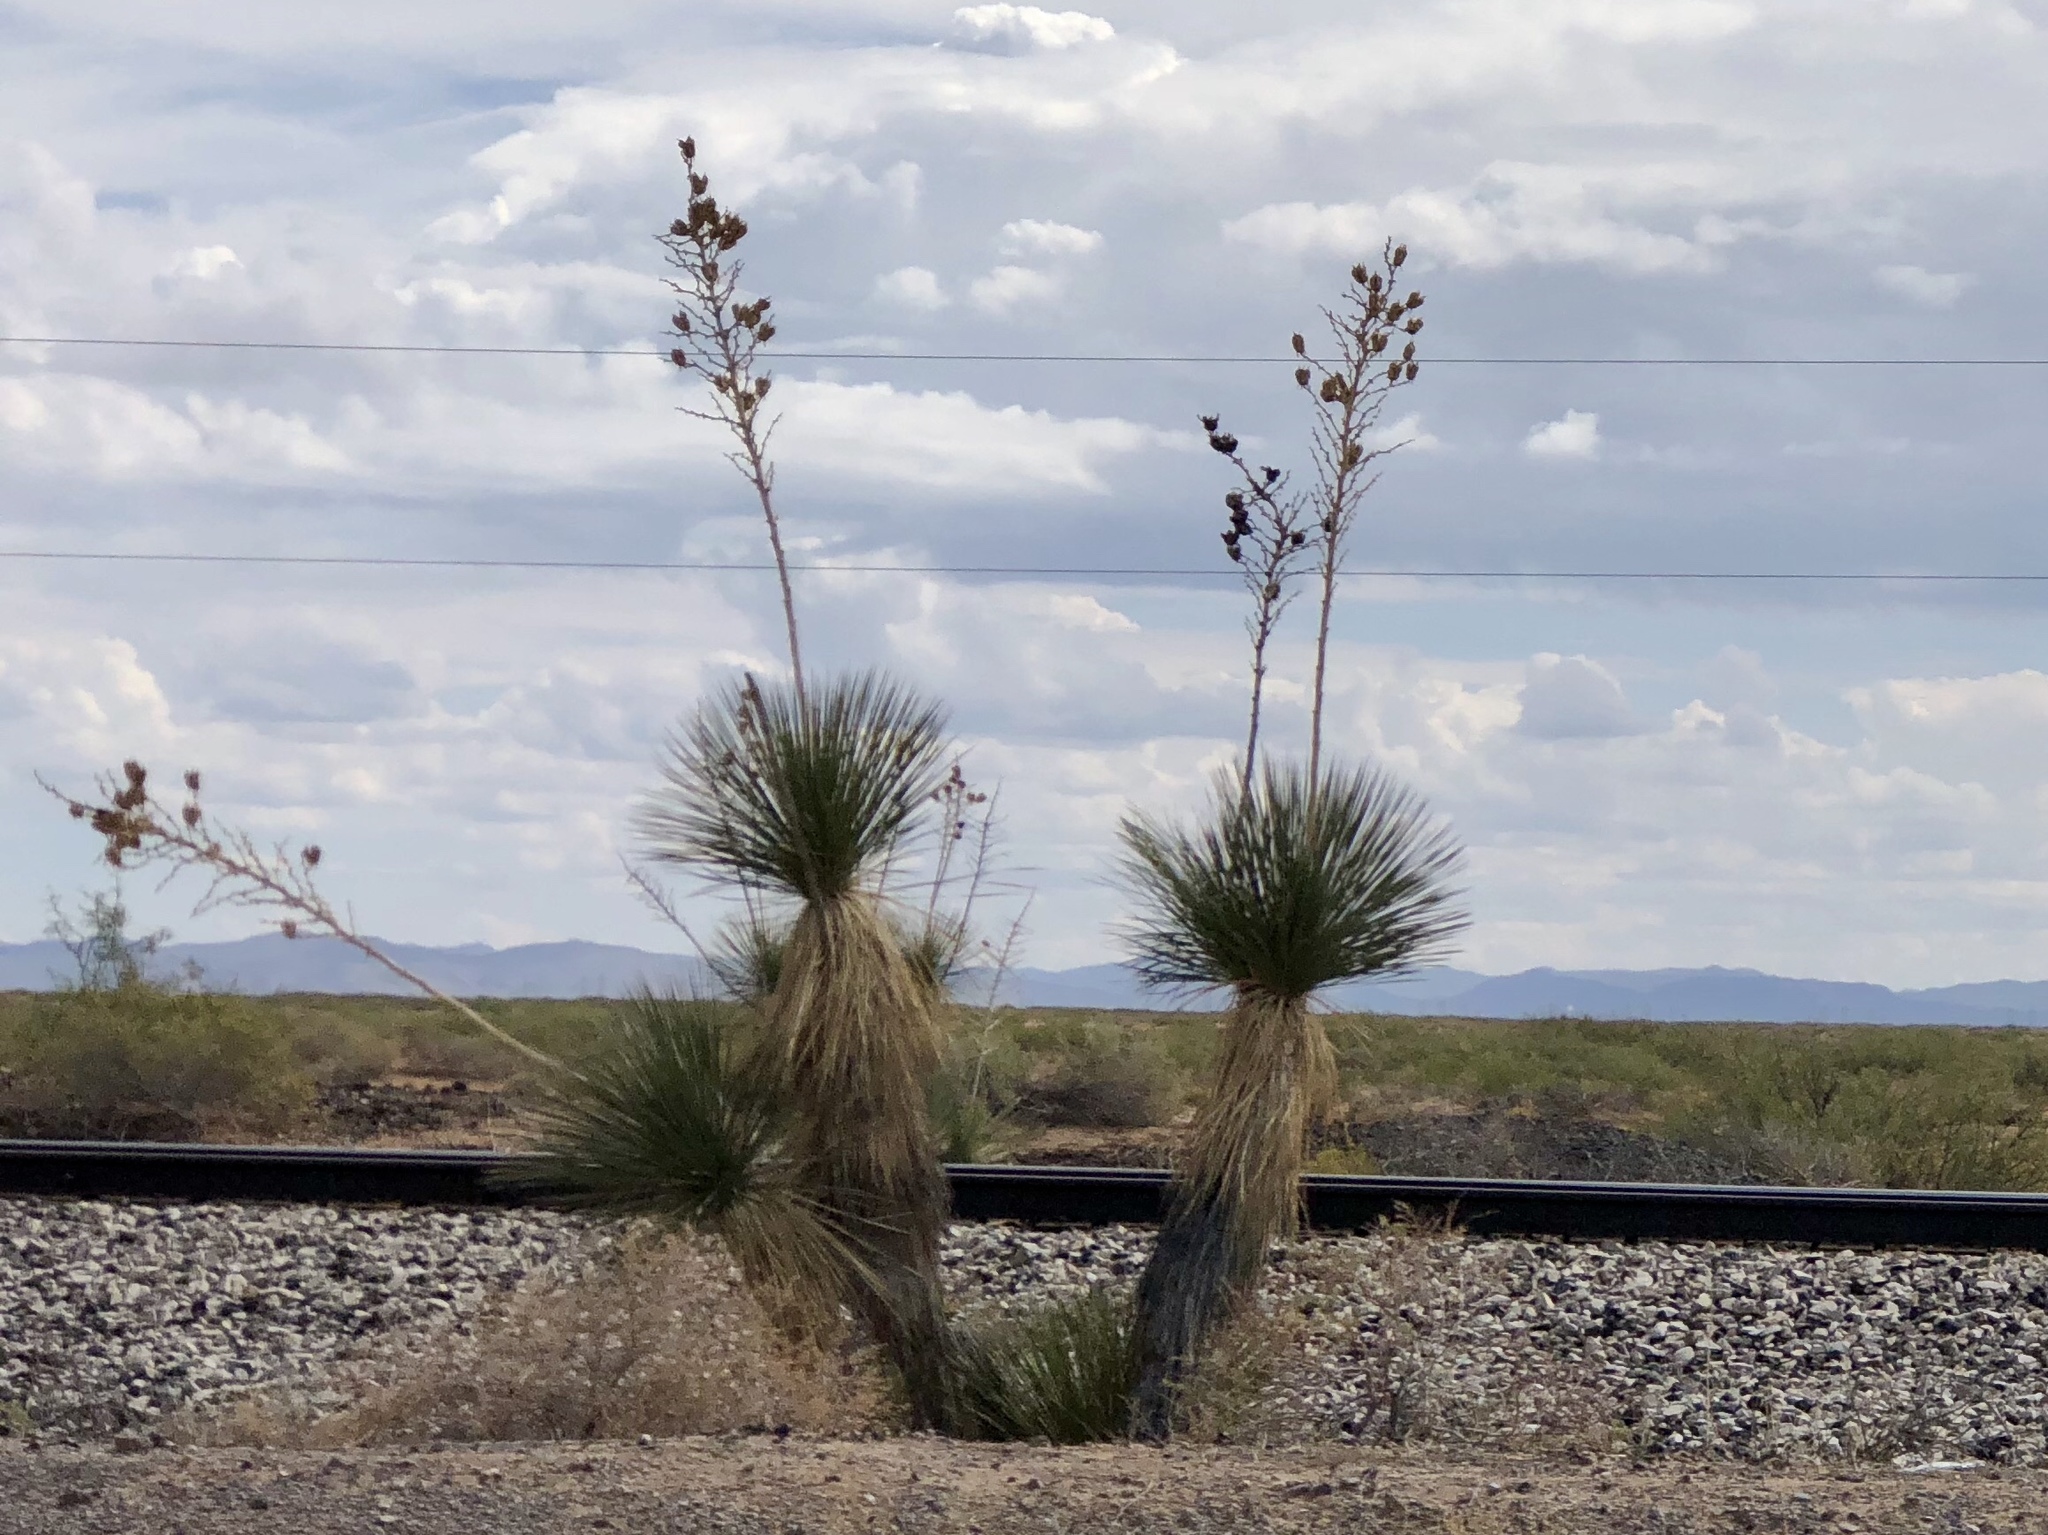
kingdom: Plantae
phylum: Tracheophyta
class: Liliopsida
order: Asparagales
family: Asparagaceae
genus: Yucca
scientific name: Yucca elata
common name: Palmella
